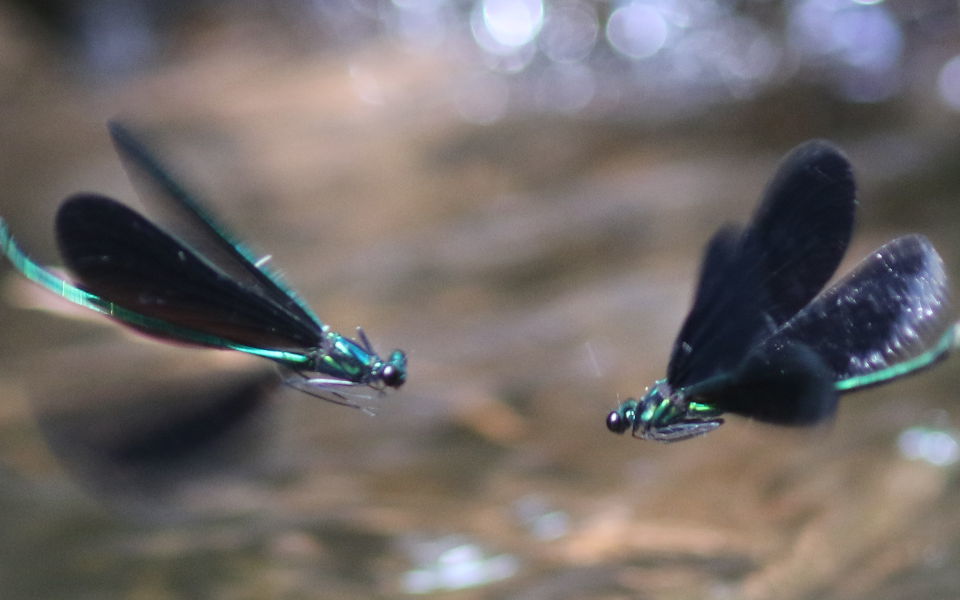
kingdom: Animalia
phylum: Arthropoda
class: Insecta
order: Odonata
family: Calopterygidae
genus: Calopteryx
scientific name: Calopteryx maculata
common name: Ebony jewelwing
